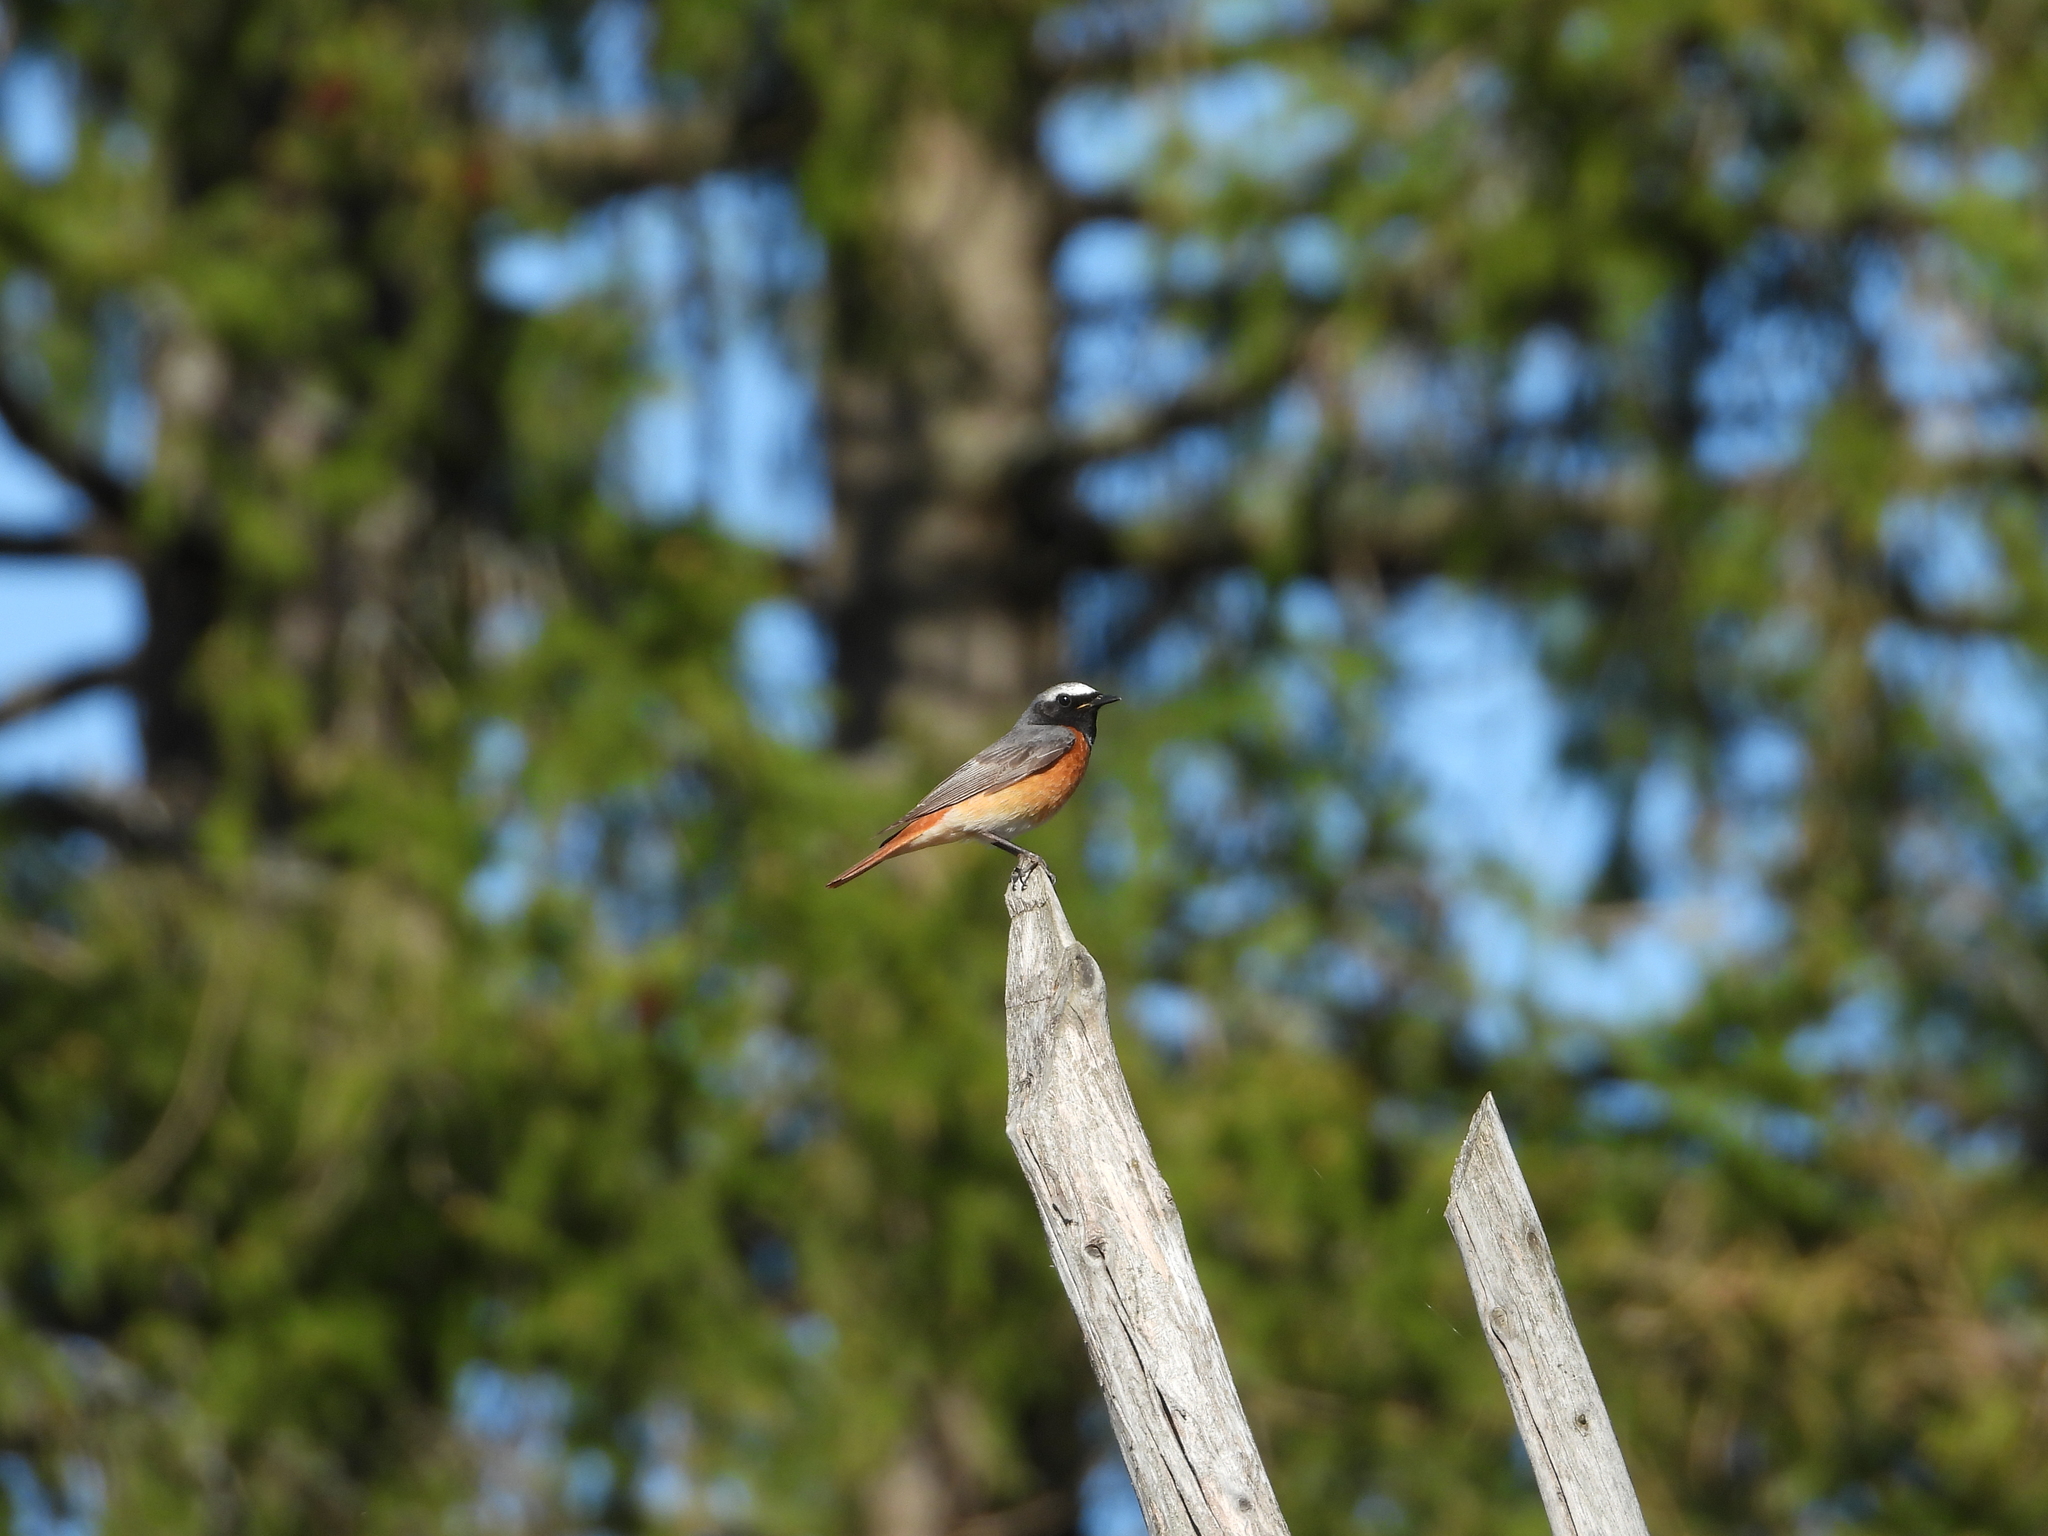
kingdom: Animalia
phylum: Chordata
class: Aves
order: Passeriformes
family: Muscicapidae
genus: Phoenicurus
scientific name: Phoenicurus phoenicurus
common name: Common redstart
